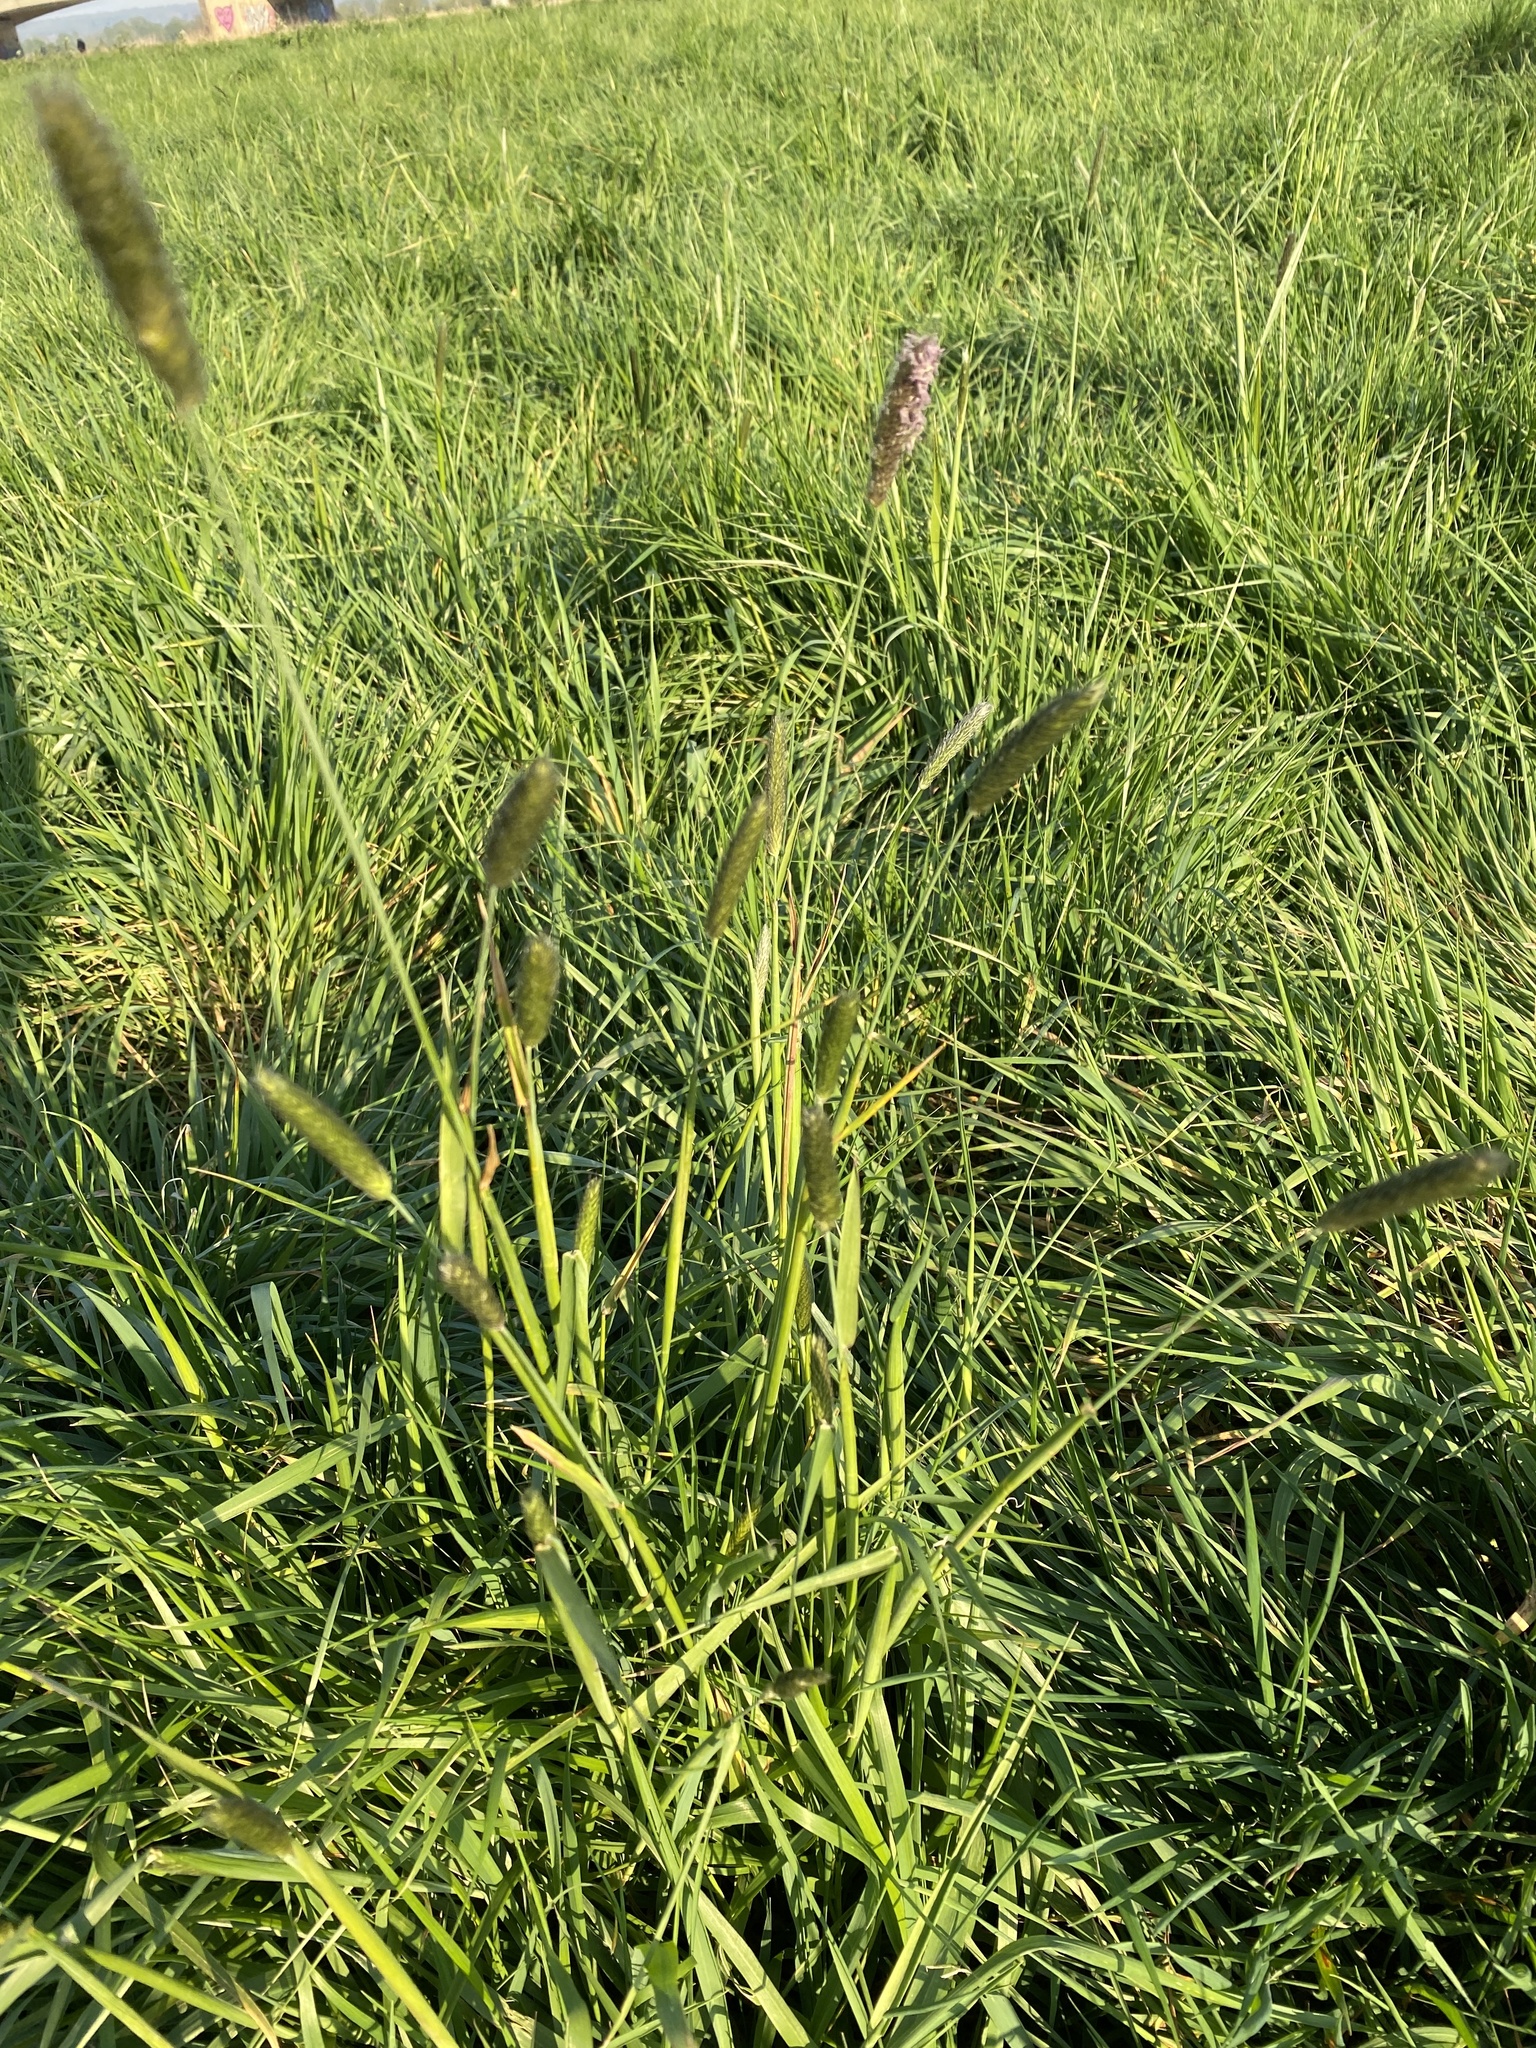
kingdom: Plantae
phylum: Tracheophyta
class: Liliopsida
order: Poales
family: Poaceae
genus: Alopecurus
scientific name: Alopecurus pratensis
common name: Meadow foxtail
